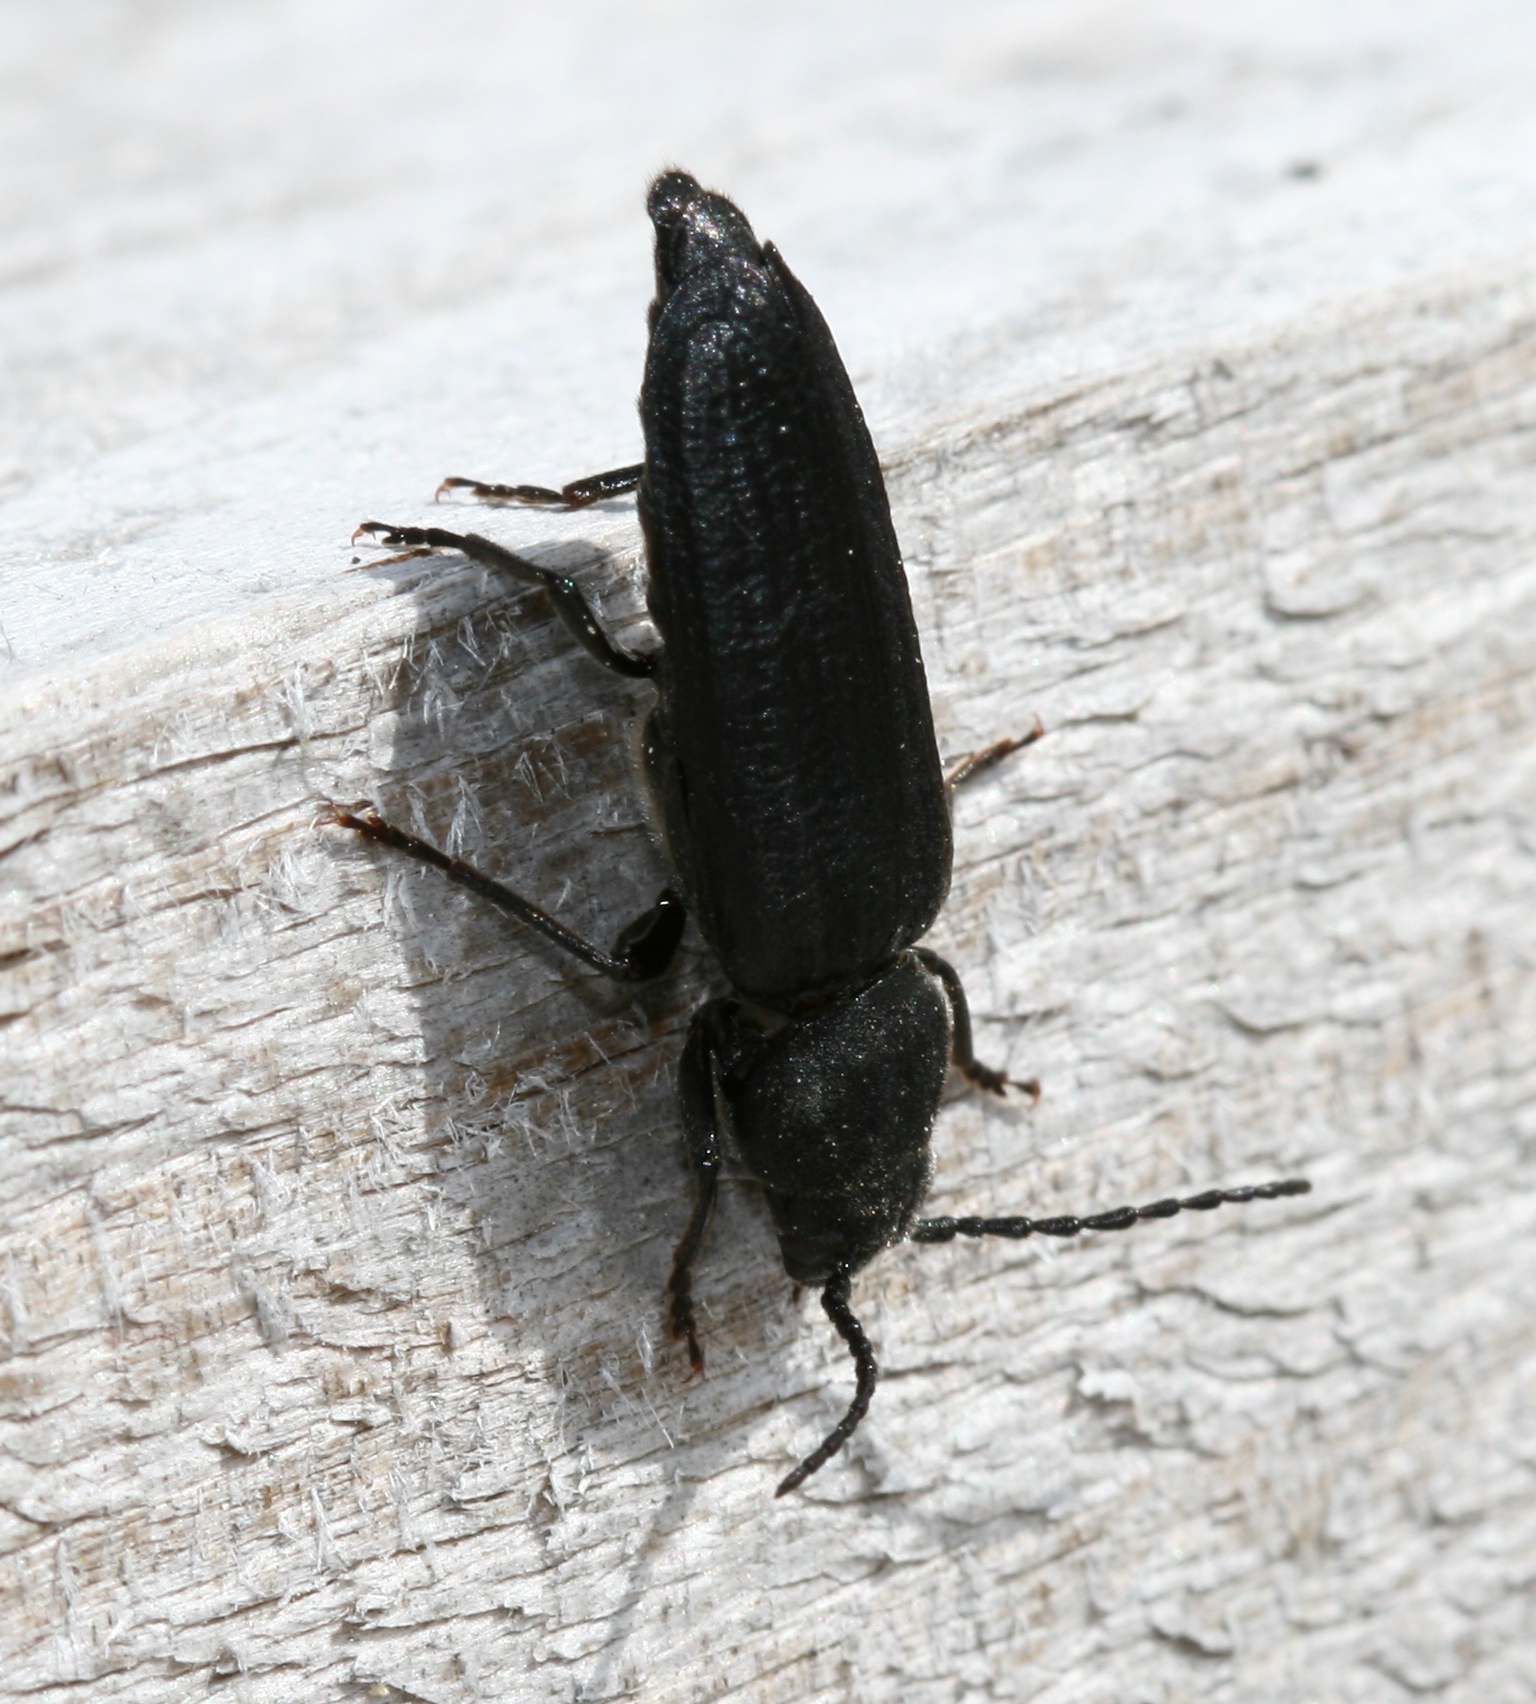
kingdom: Animalia
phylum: Arthropoda
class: Insecta
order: Coleoptera
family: Cerambycidae
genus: Asemum
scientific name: Asemum striatum
